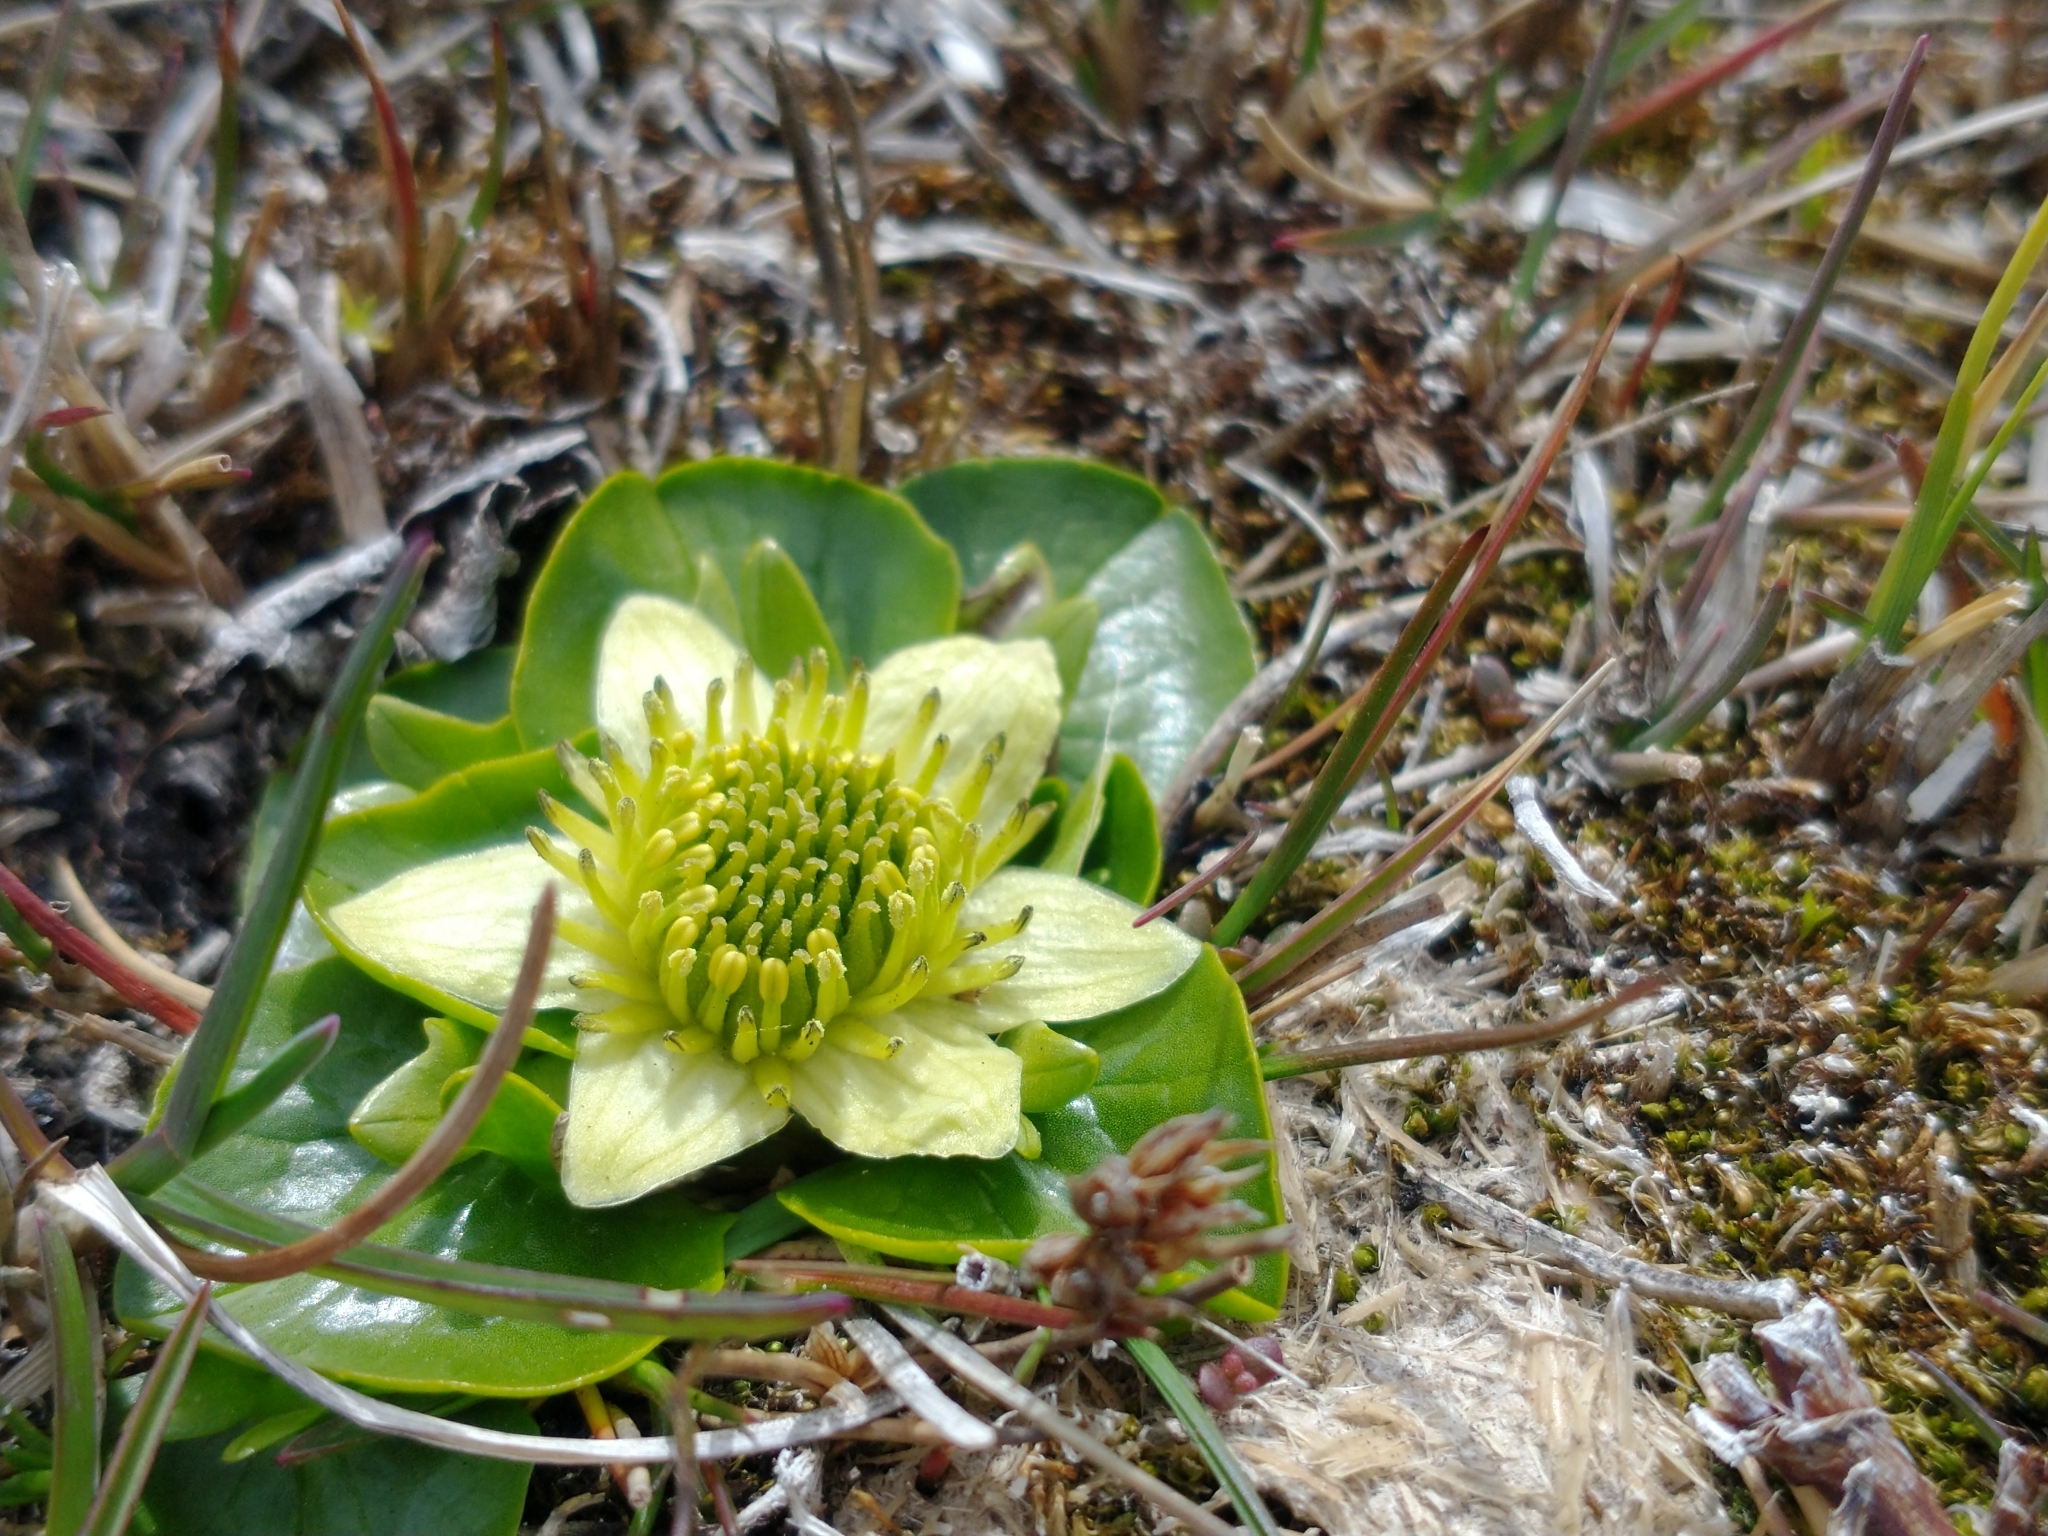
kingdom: Plantae
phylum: Tracheophyta
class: Magnoliopsida
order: Ranunculales
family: Ranunculaceae
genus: Caltha
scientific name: Caltha sagittata
